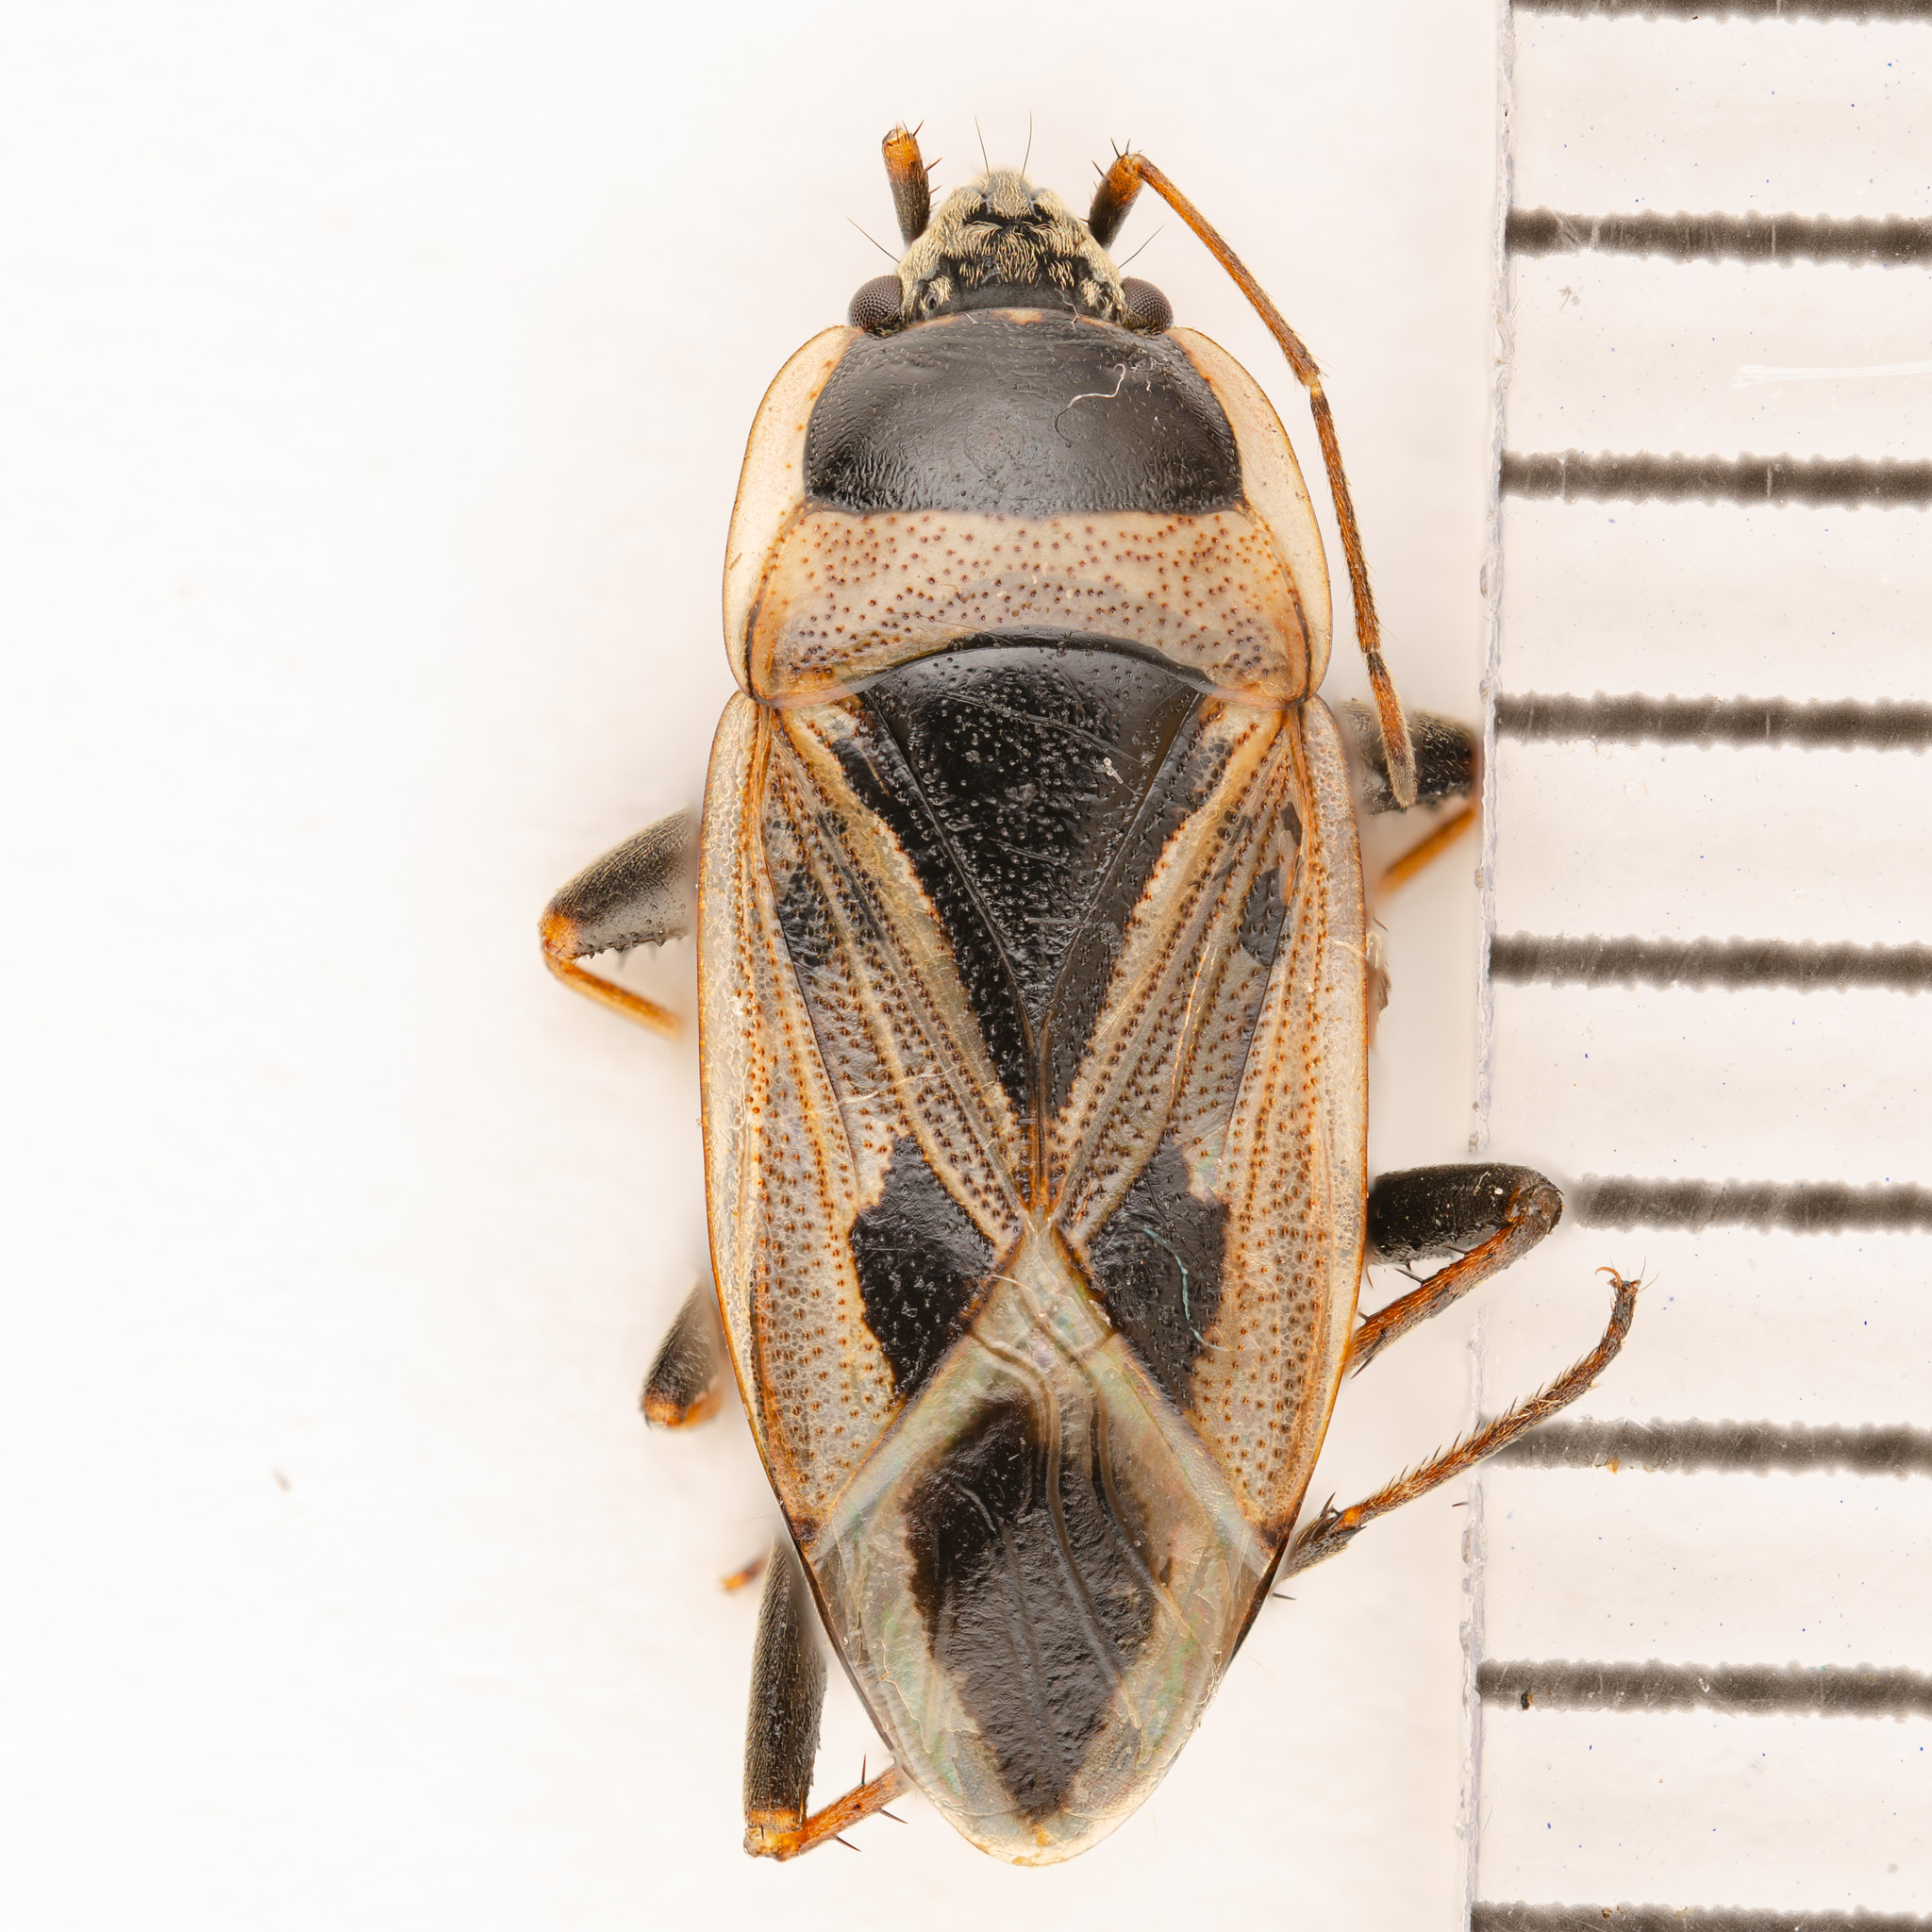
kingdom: Animalia
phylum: Arthropoda
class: Insecta
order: Hemiptera
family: Rhyparochromidae
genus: Xanthochilus
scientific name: Xanthochilus saturnius
